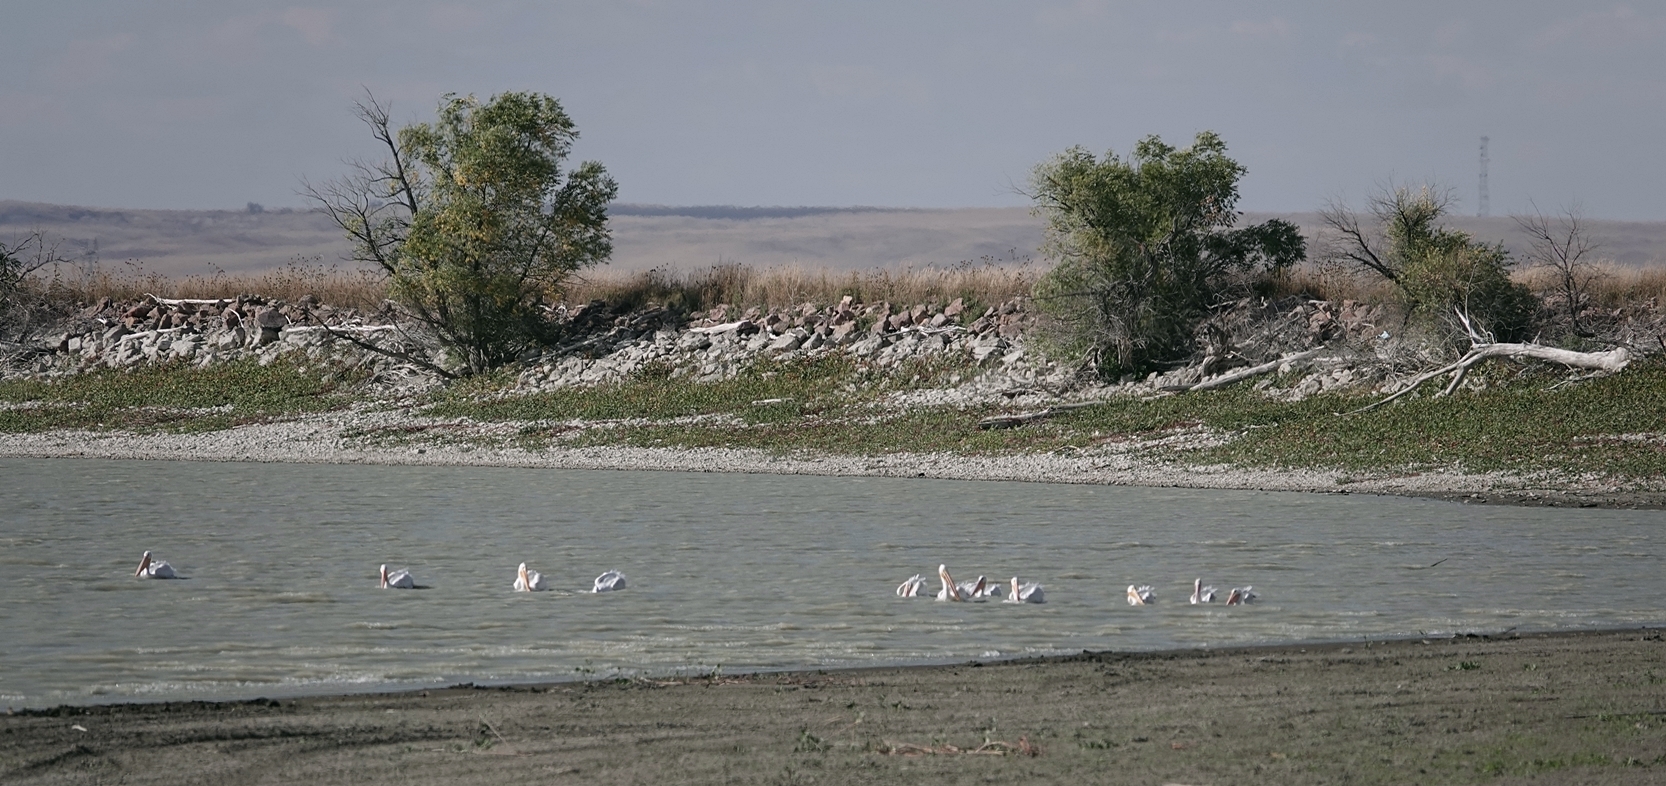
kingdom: Animalia
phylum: Chordata
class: Aves
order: Pelecaniformes
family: Pelecanidae
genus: Pelecanus
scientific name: Pelecanus erythrorhynchos
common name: American white pelican
